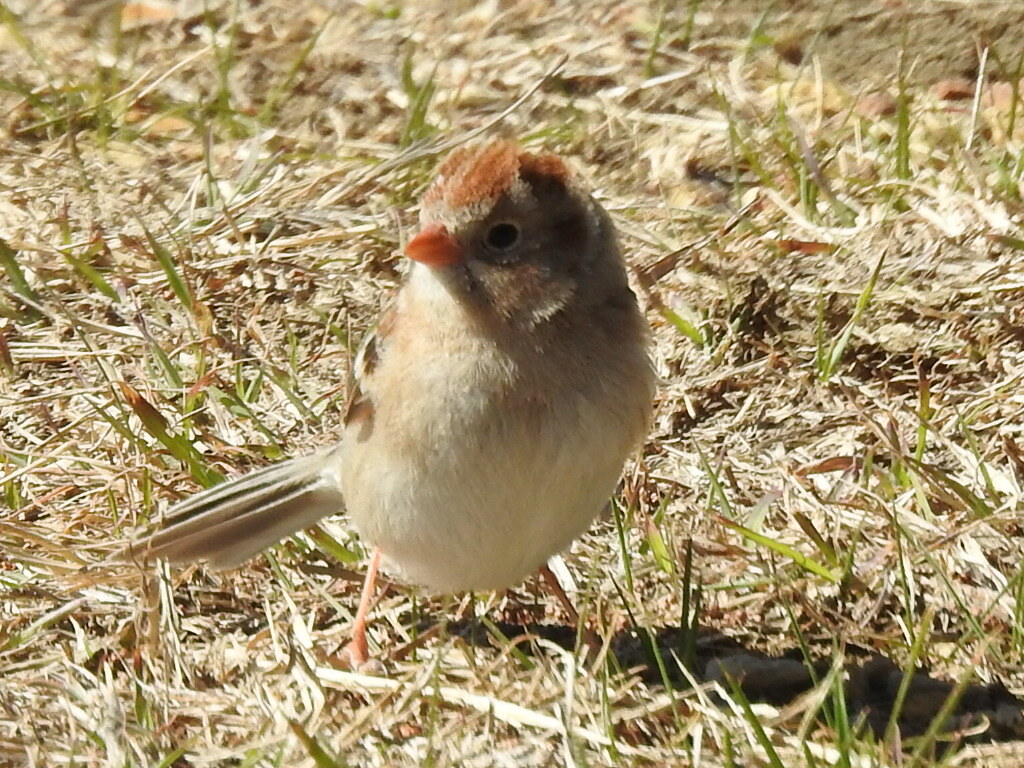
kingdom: Animalia
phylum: Chordata
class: Aves
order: Passeriformes
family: Passerellidae
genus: Spizella
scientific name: Spizella pusilla
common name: Field sparrow
